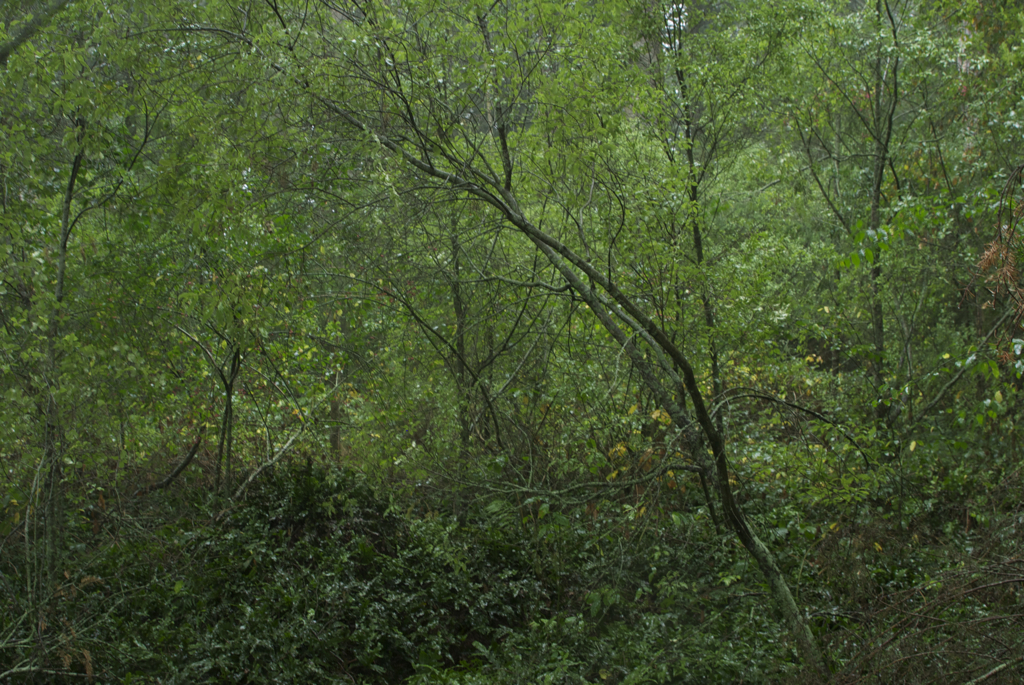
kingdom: Plantae
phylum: Tracheophyta
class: Magnoliopsida
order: Apiales
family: Pittosporaceae
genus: Pittosporum
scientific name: Pittosporum tenuifolium
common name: Kohuhu
